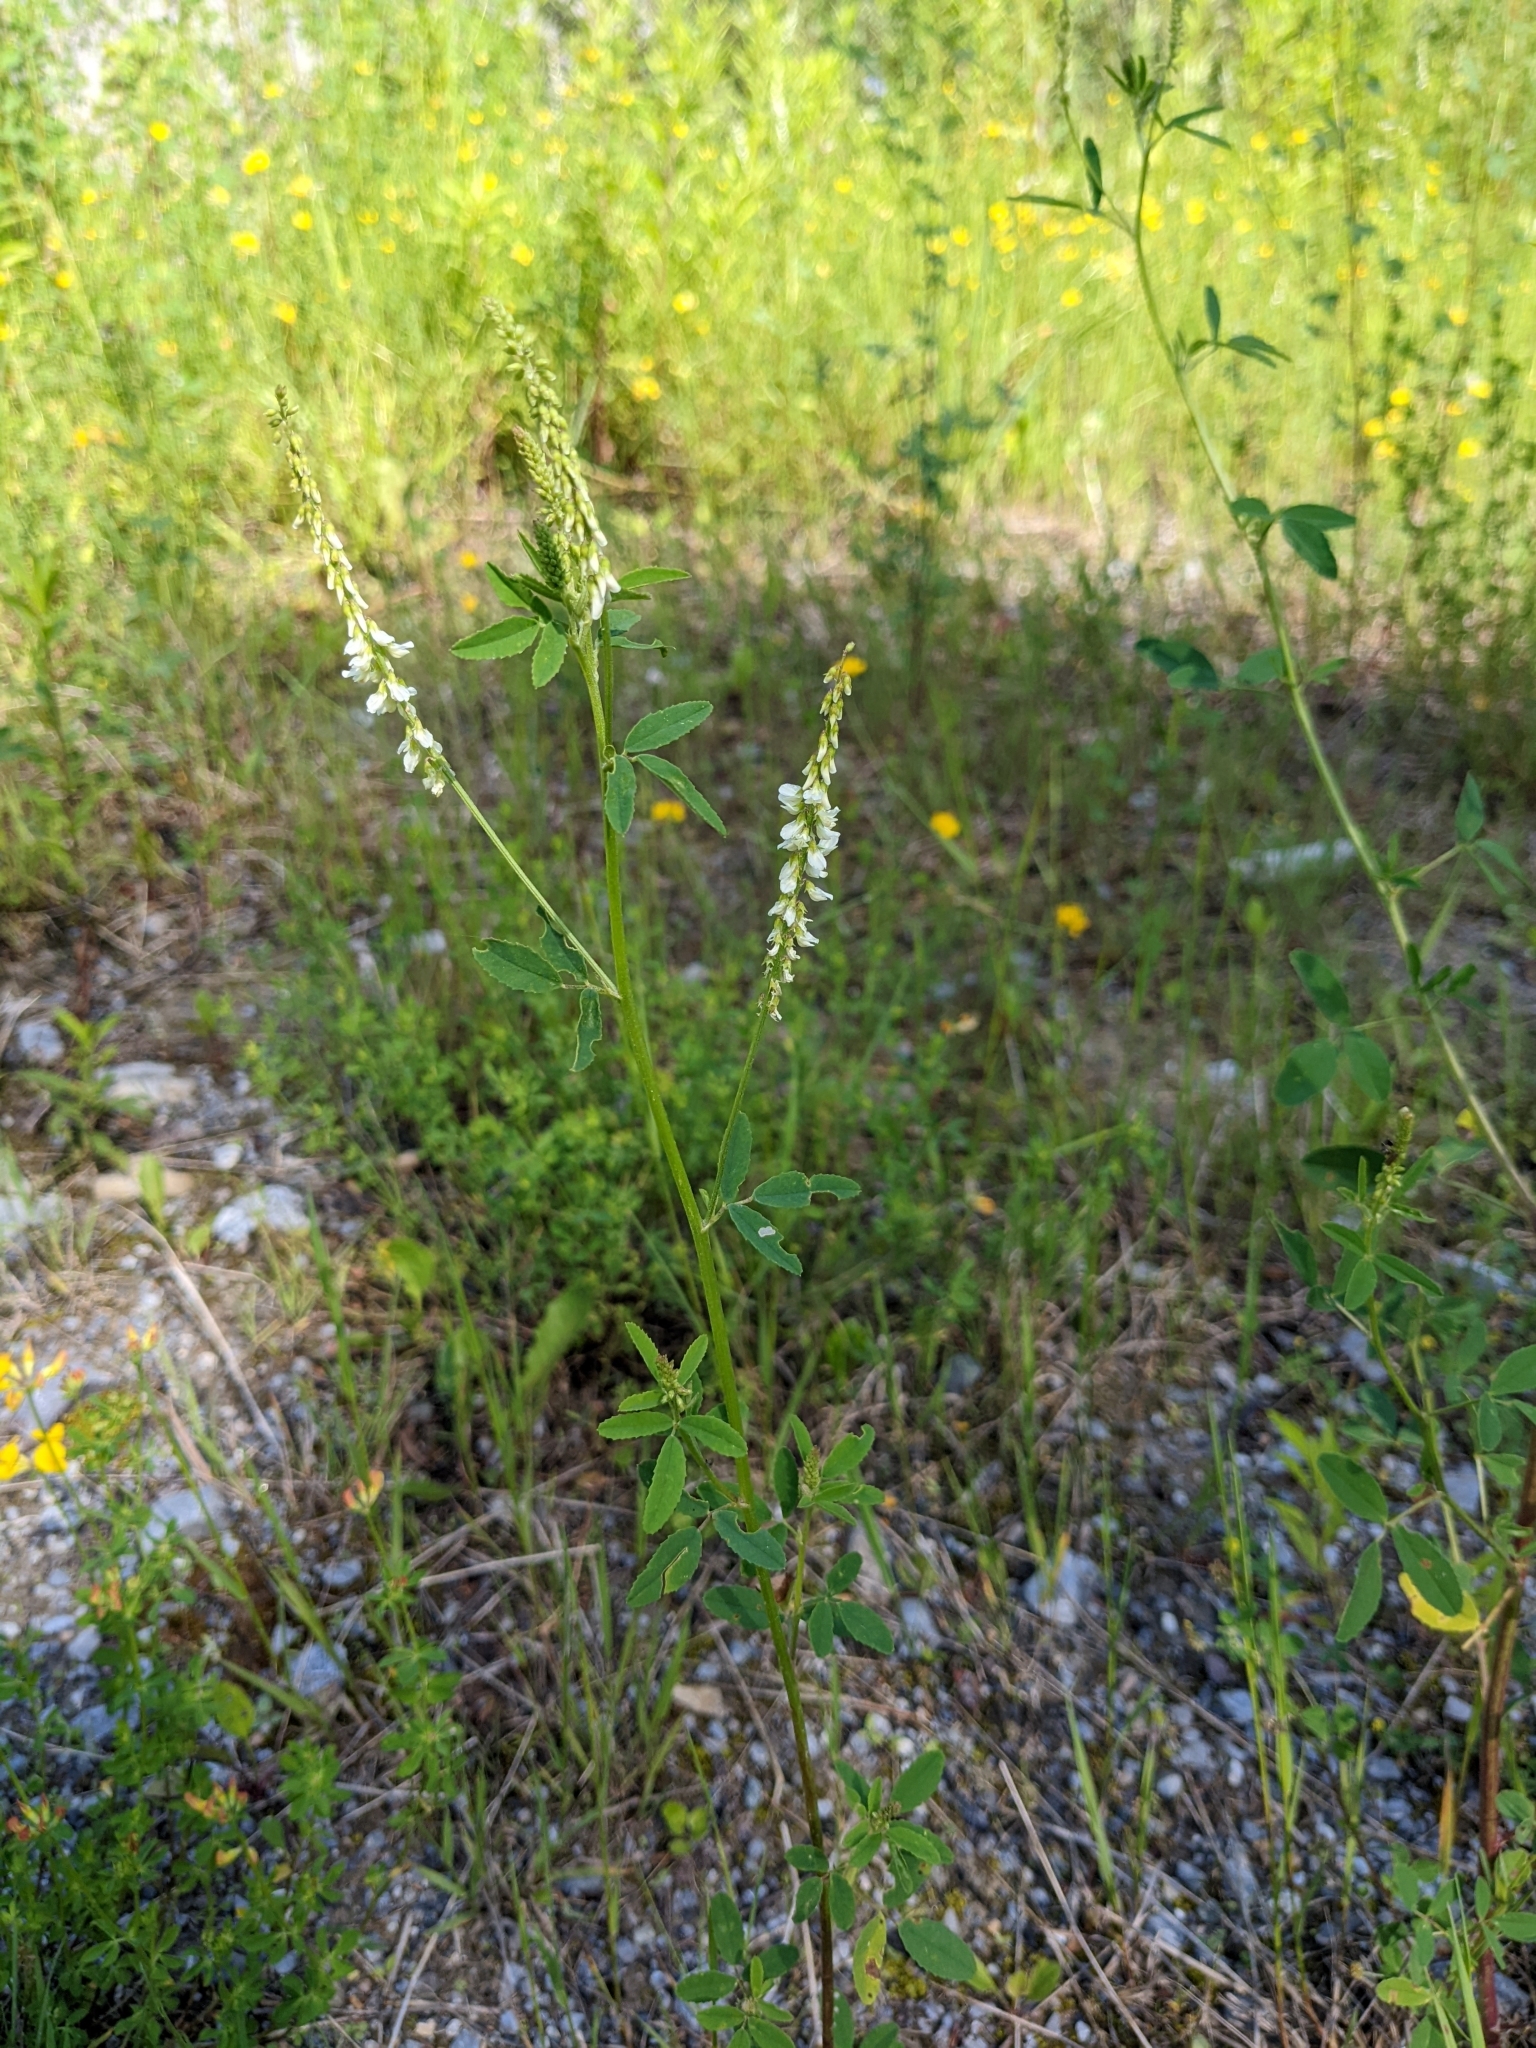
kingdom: Plantae
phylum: Tracheophyta
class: Magnoliopsida
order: Fabales
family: Fabaceae
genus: Melilotus
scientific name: Melilotus albus
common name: White melilot
